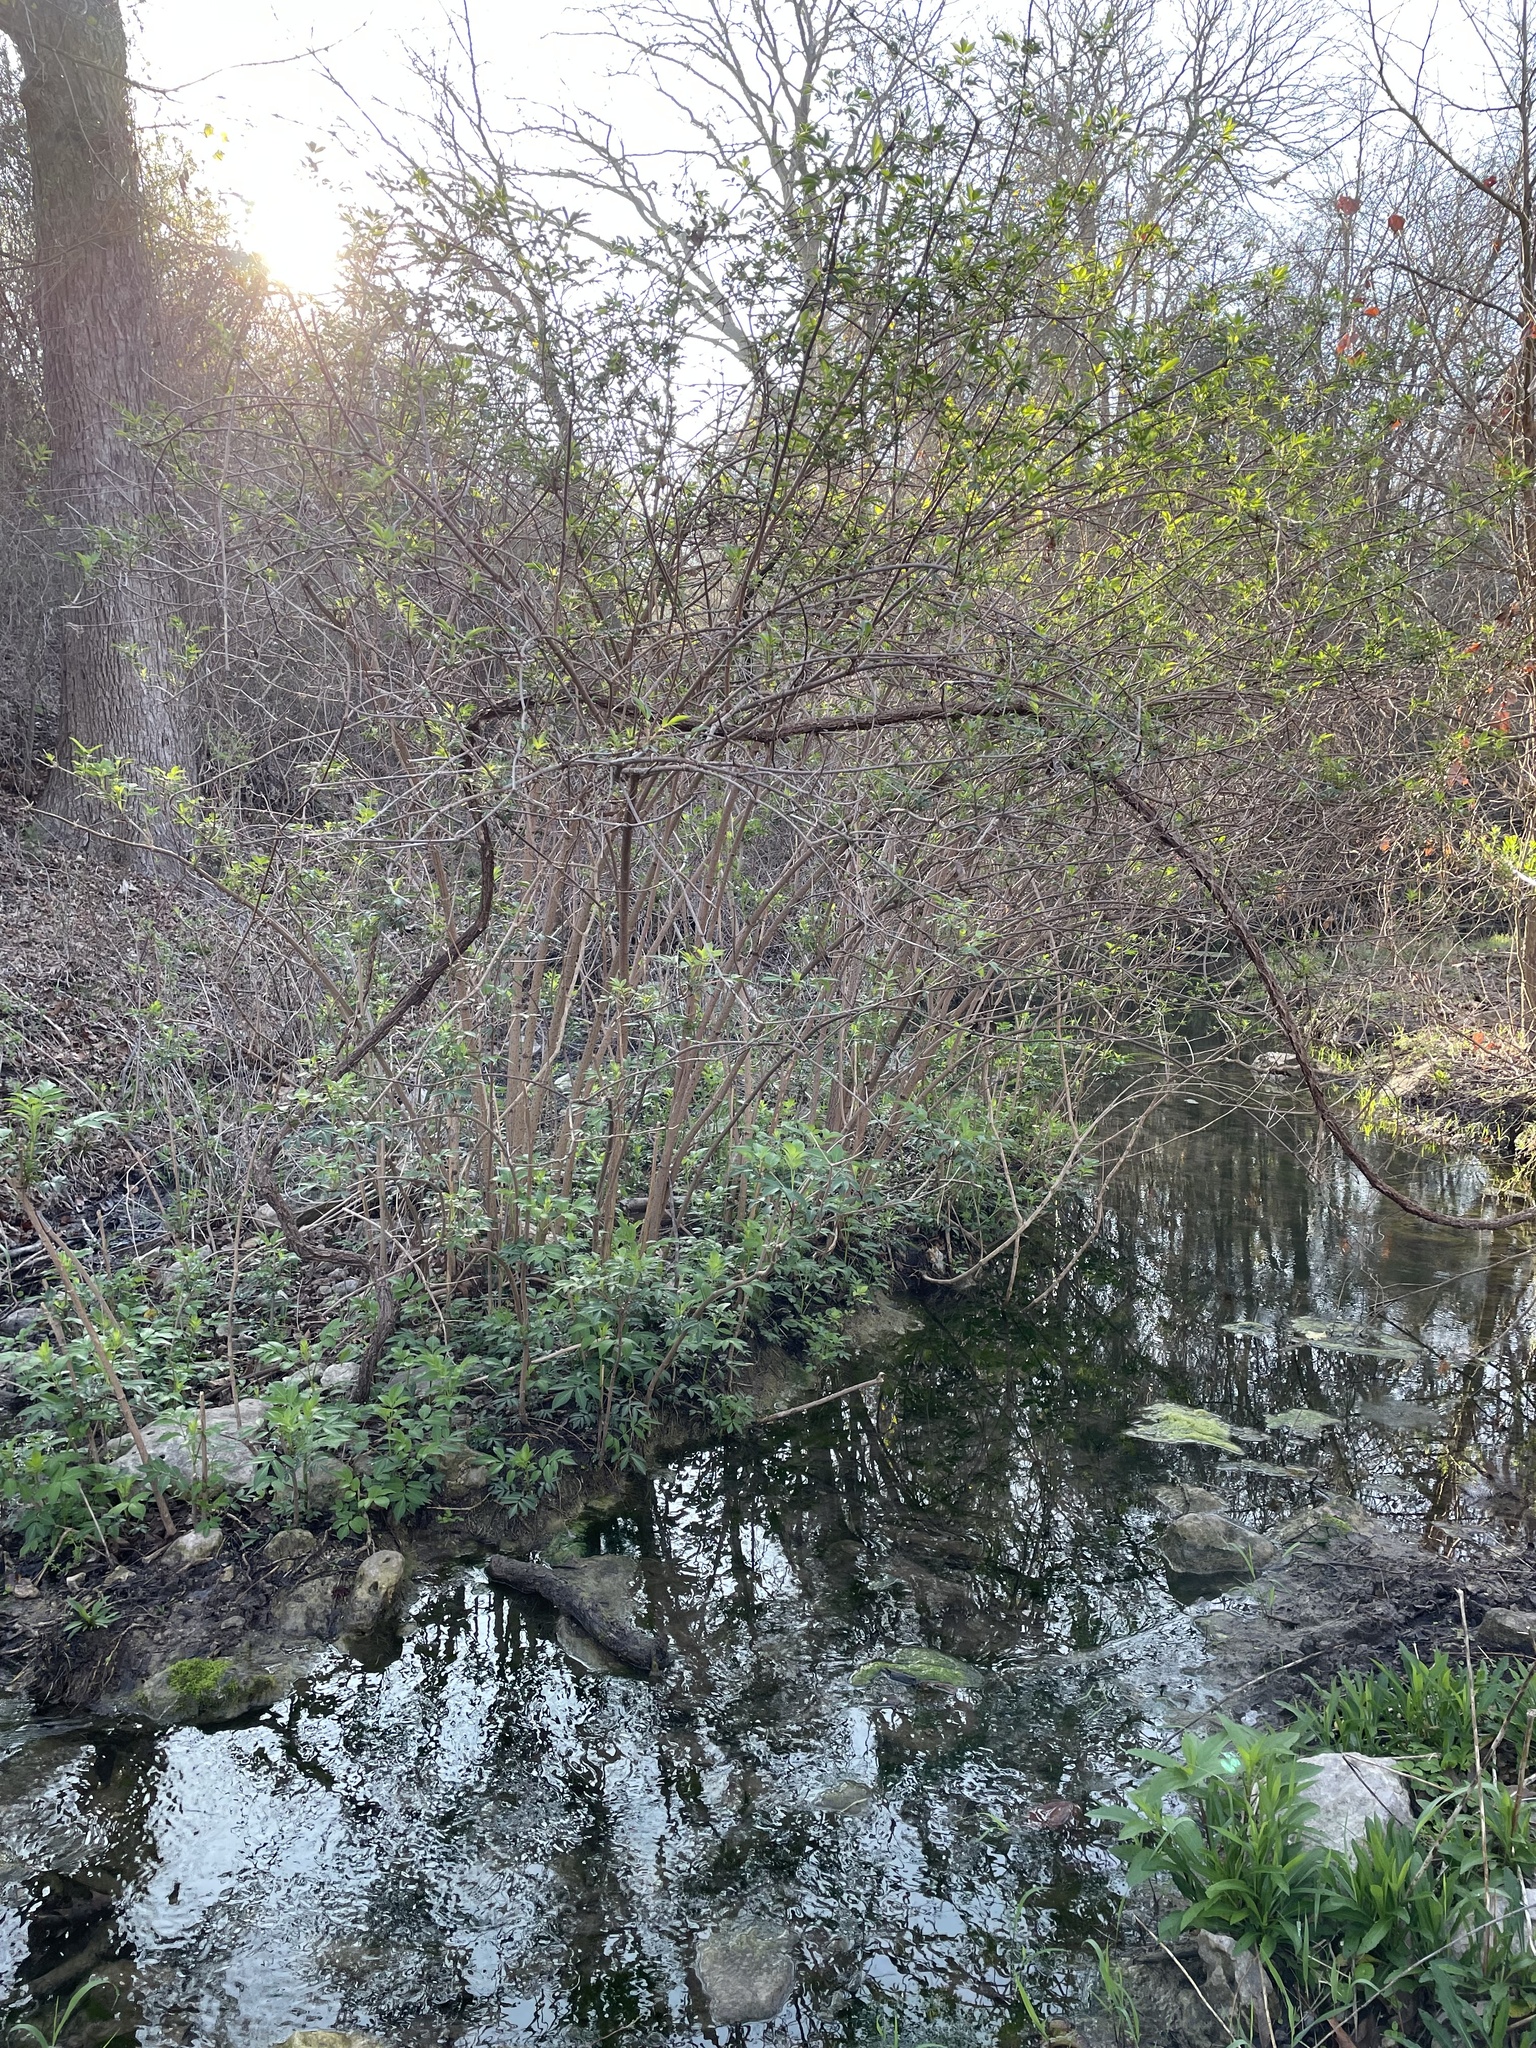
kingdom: Plantae
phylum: Tracheophyta
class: Magnoliopsida
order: Dipsacales
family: Viburnaceae
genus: Sambucus
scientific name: Sambucus canadensis
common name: American elder
